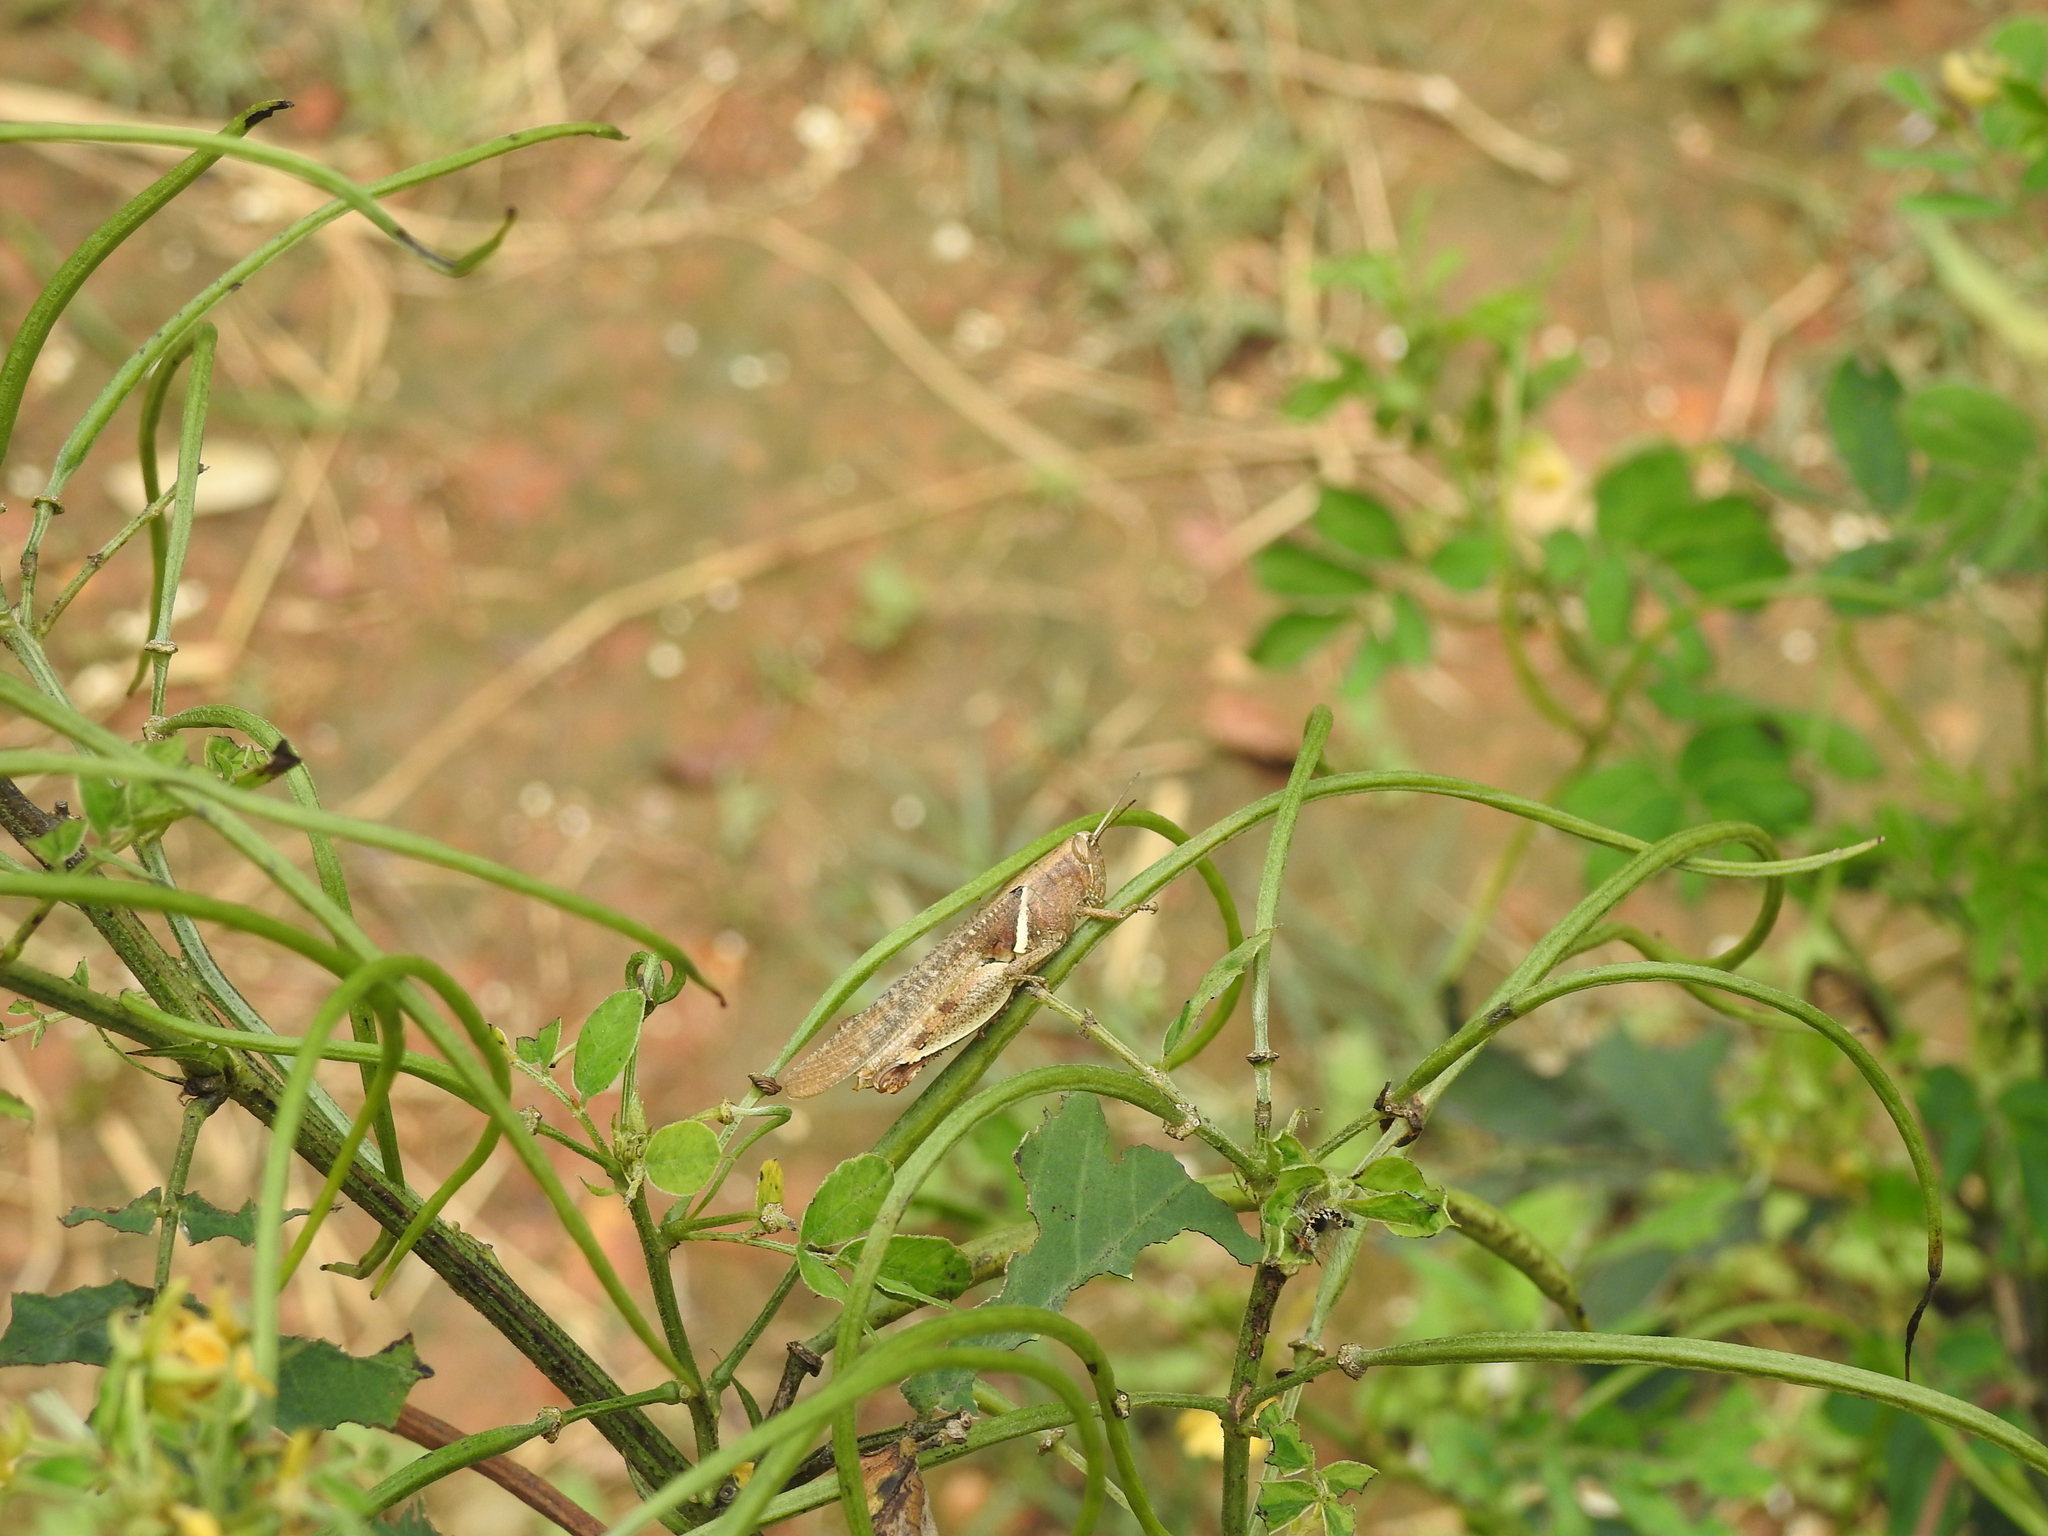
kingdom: Animalia
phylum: Arthropoda
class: Insecta
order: Orthoptera
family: Acrididae
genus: Diabolocatantops
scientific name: Diabolocatantops innotabilis
